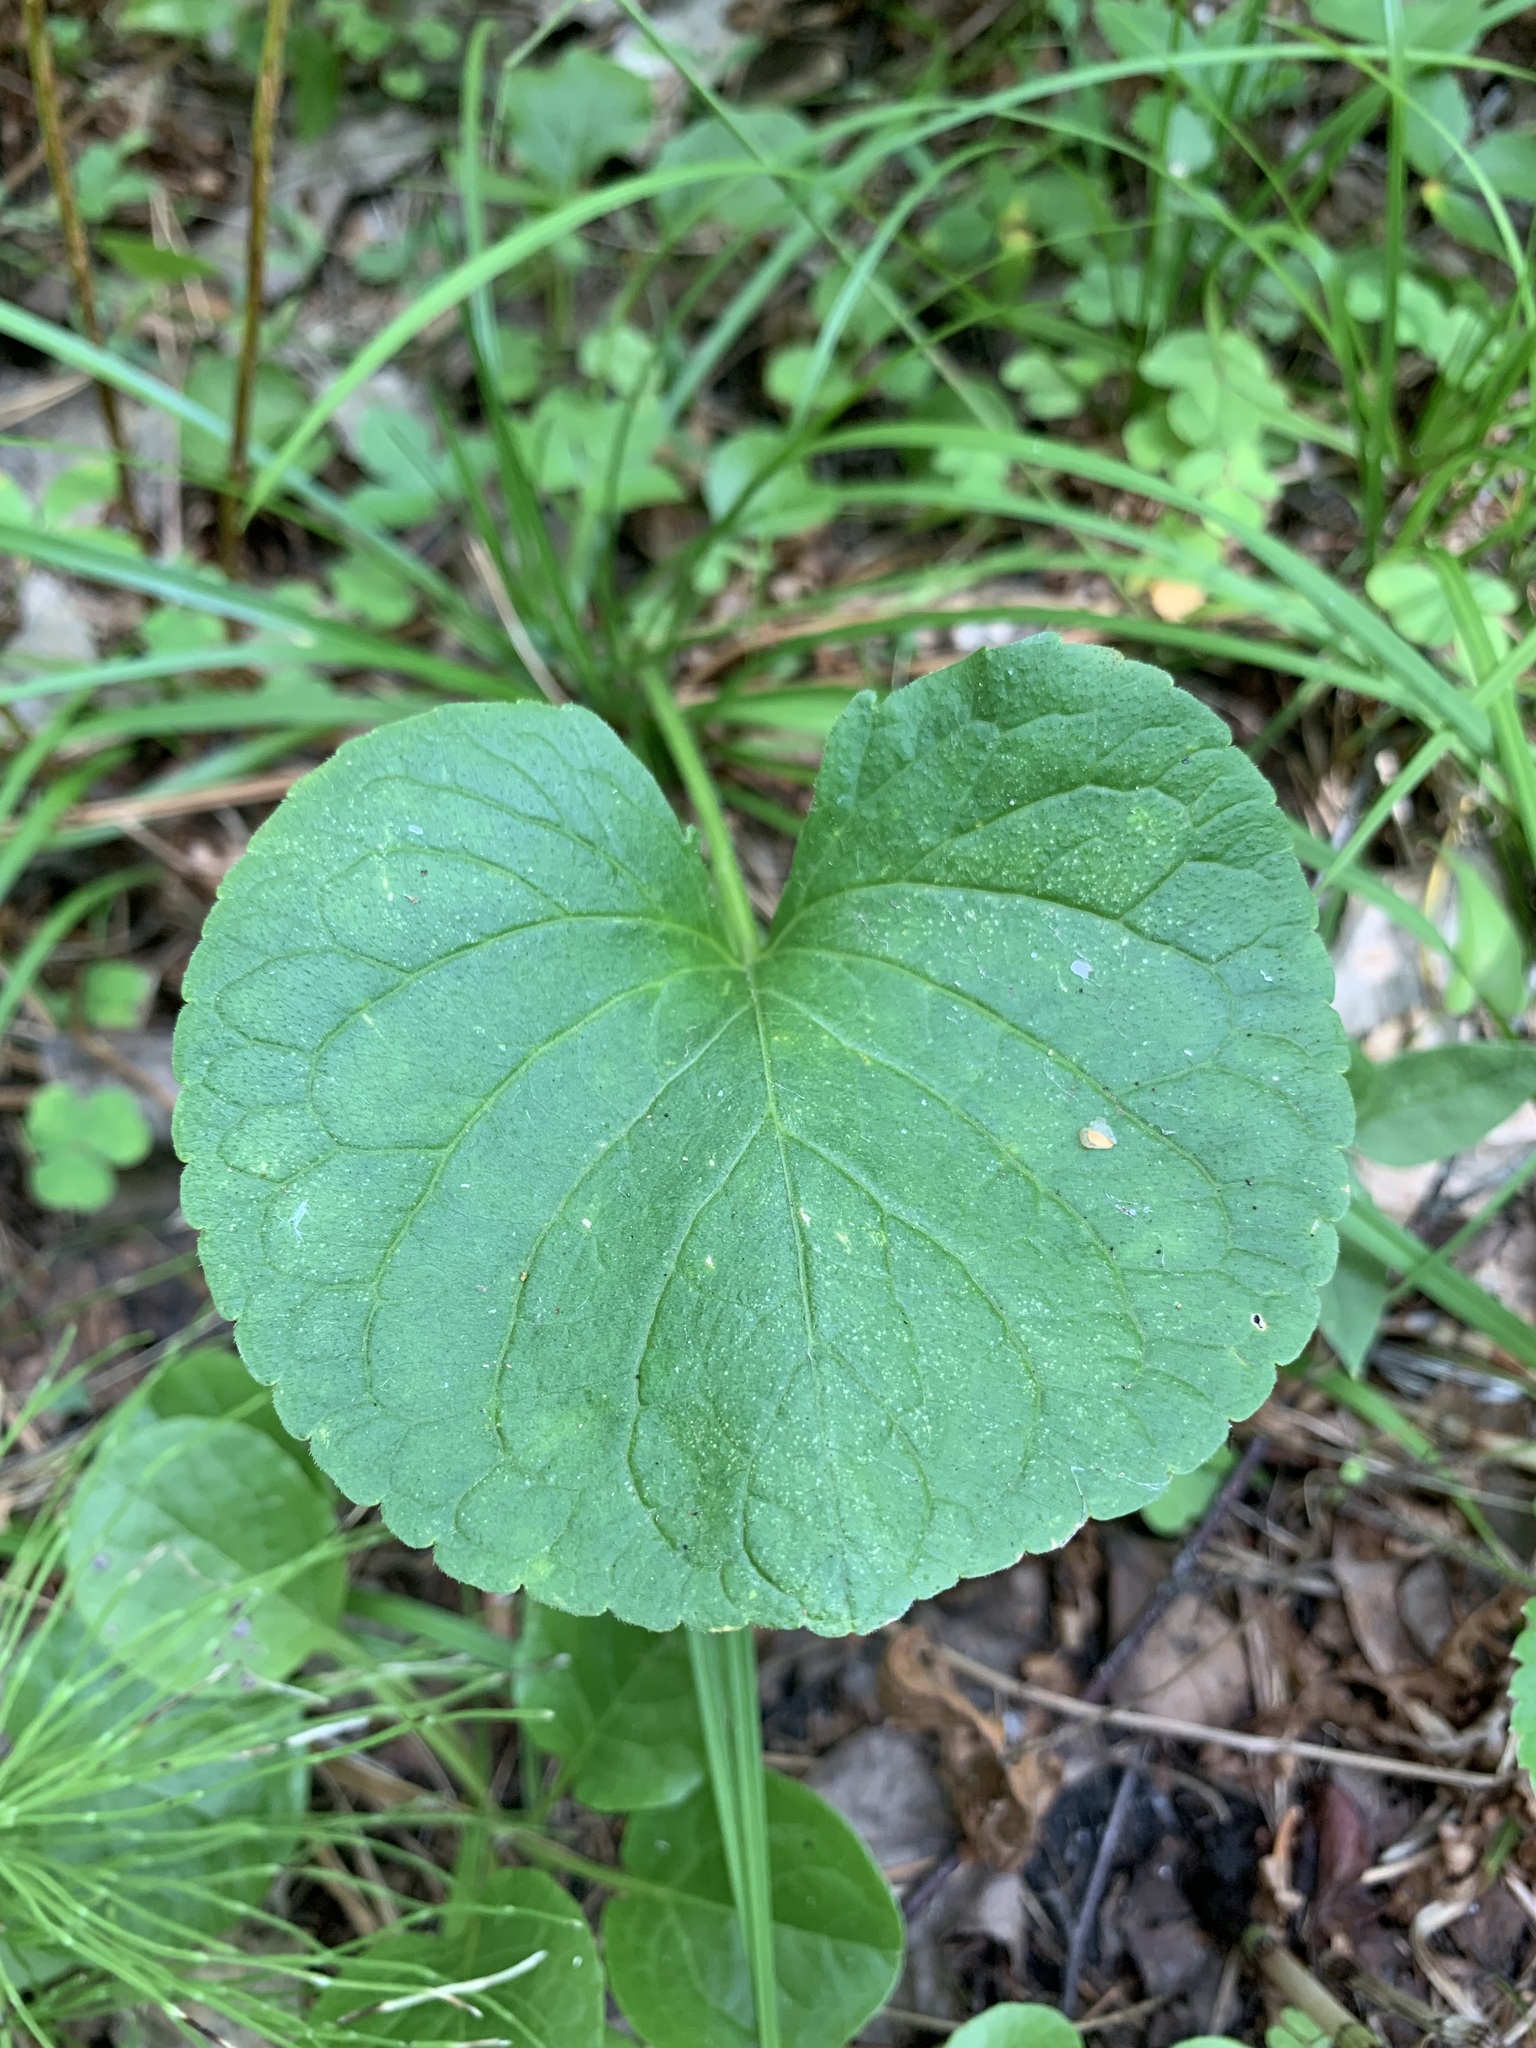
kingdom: Plantae
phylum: Tracheophyta
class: Magnoliopsida
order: Malpighiales
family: Violaceae
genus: Viola
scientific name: Viola mirabilis
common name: Wonder violet
